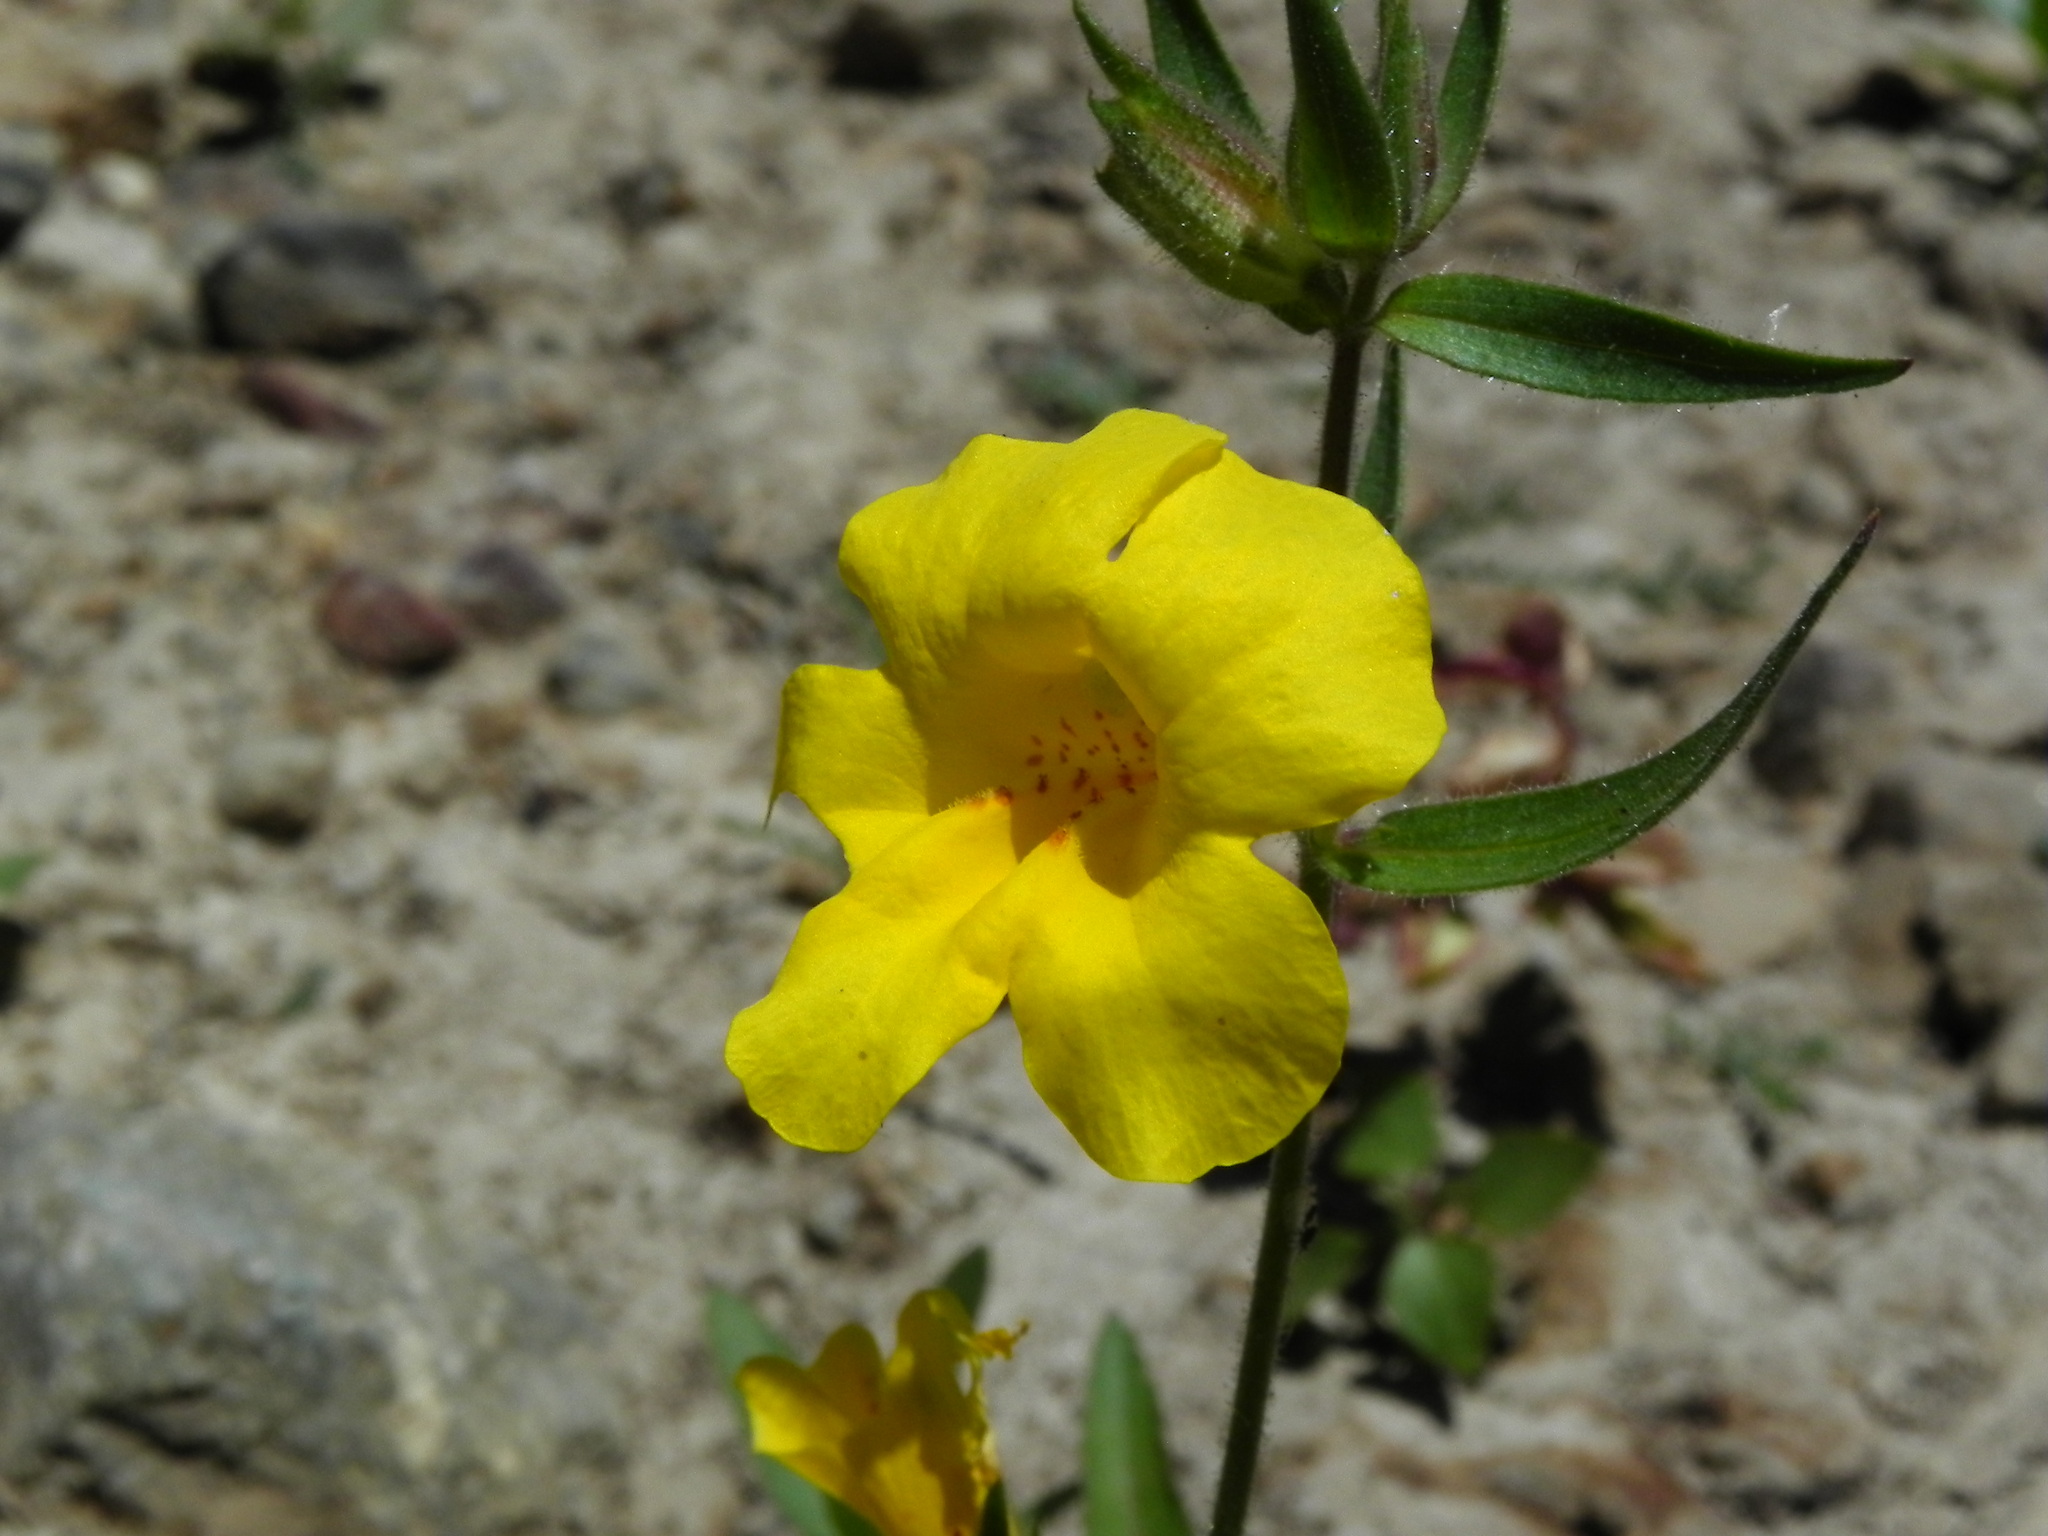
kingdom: Plantae
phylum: Tracheophyta
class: Magnoliopsida
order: Lamiales
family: Phrymaceae
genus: Diplacus
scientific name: Diplacus brevipes
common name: Wide-throat yellow monkey-flower
